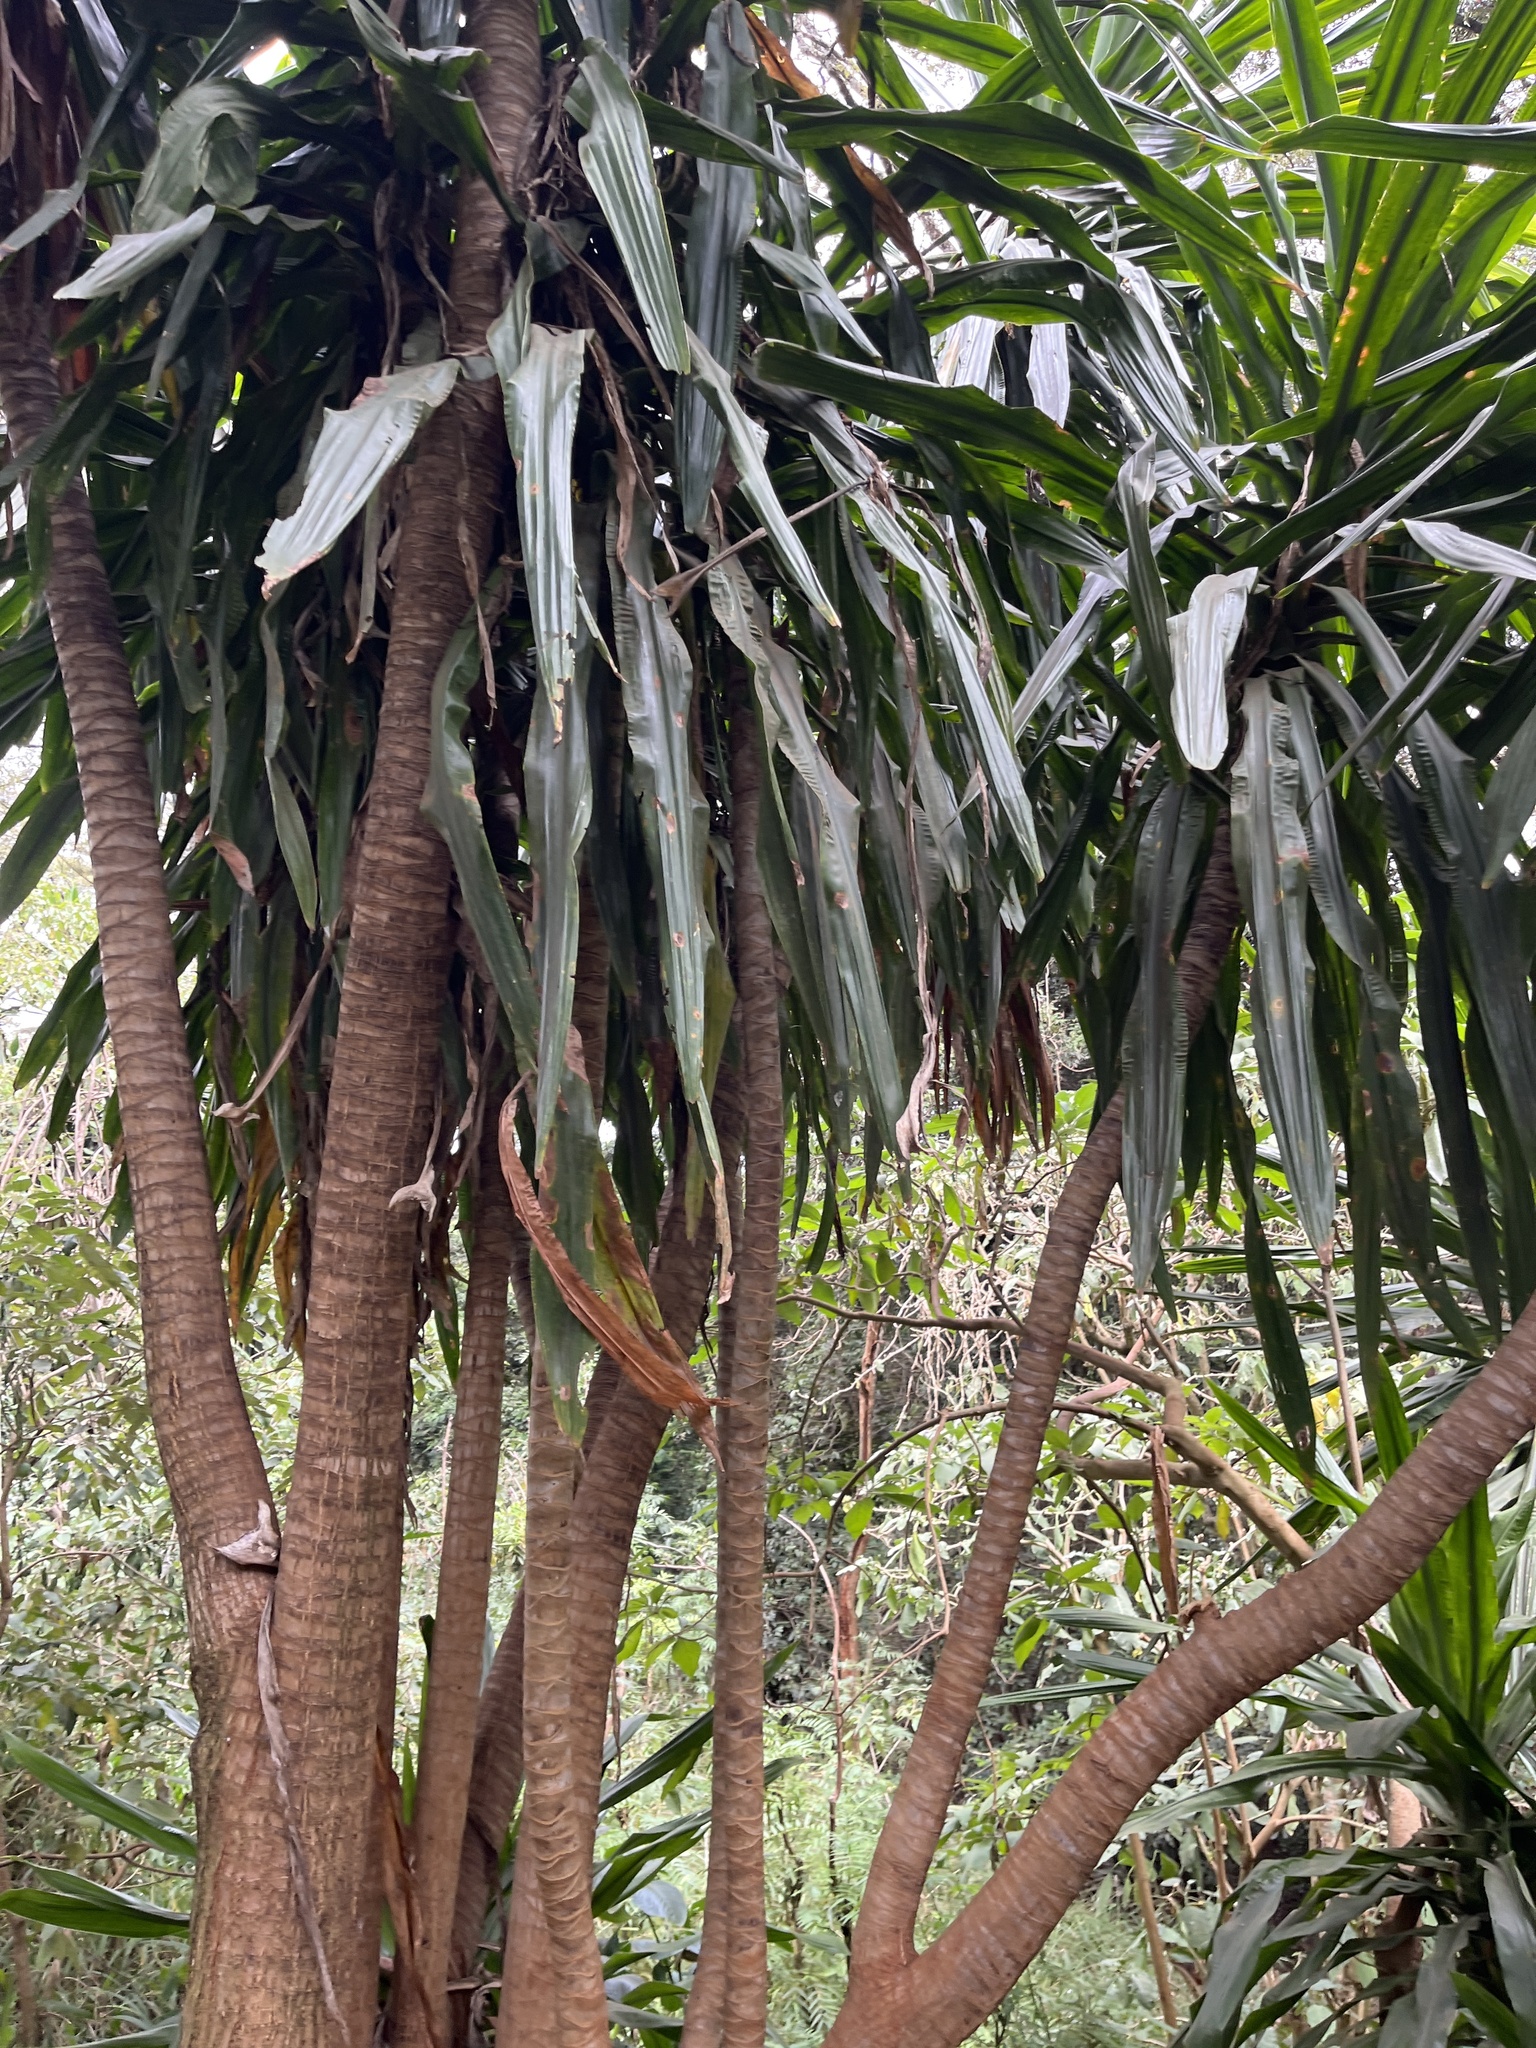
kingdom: Plantae
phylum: Tracheophyta
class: Liliopsida
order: Asparagales
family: Asparagaceae
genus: Dracaena
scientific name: Dracaena steudneri
